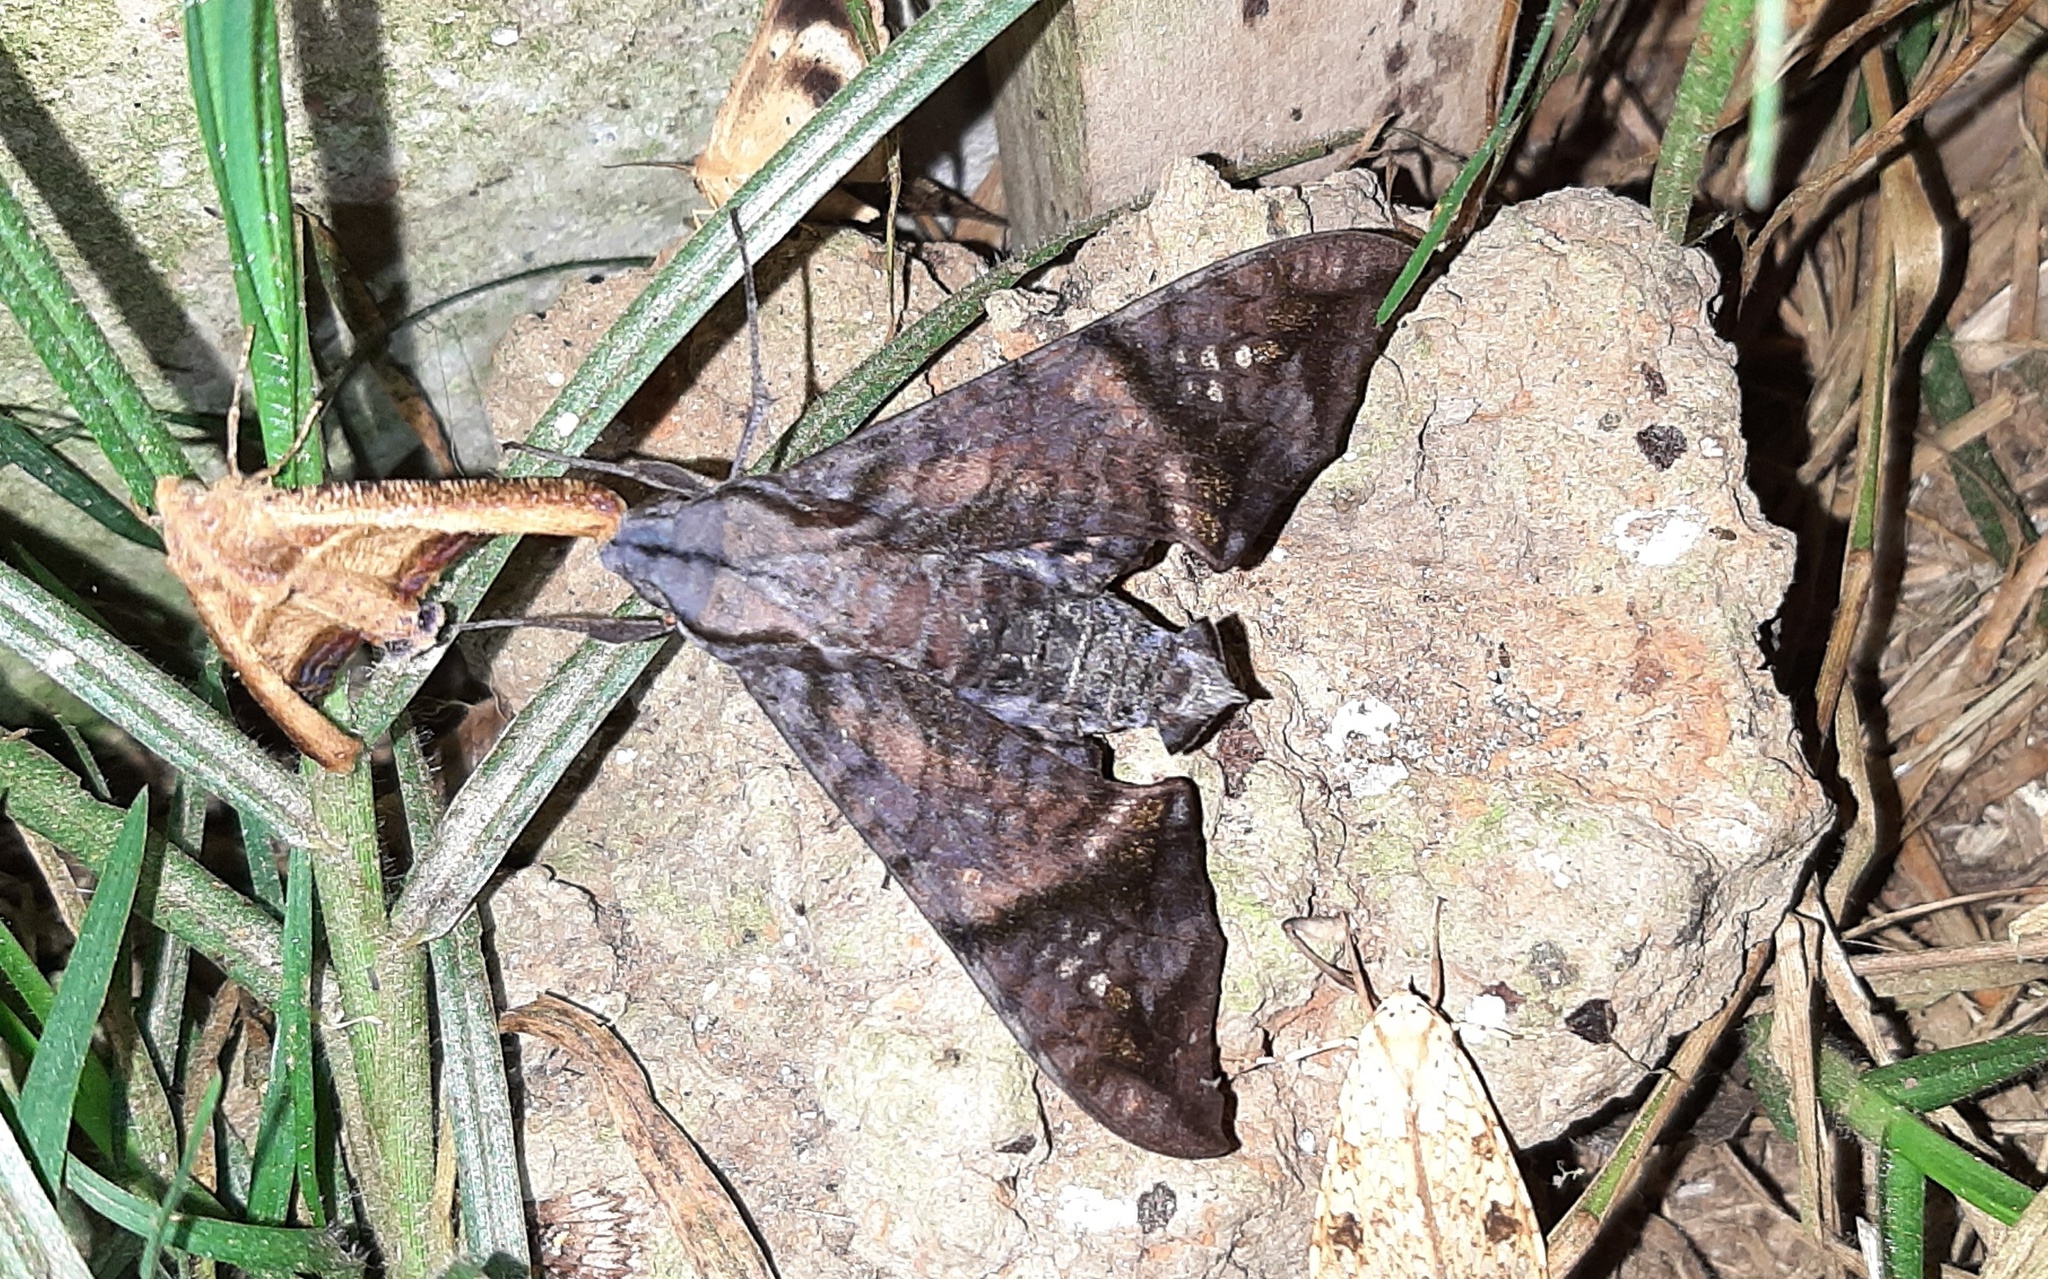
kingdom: Animalia
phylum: Arthropoda
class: Insecta
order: Lepidoptera
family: Sphingidae
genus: Nyceryx
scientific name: Nyceryx hyposticta
